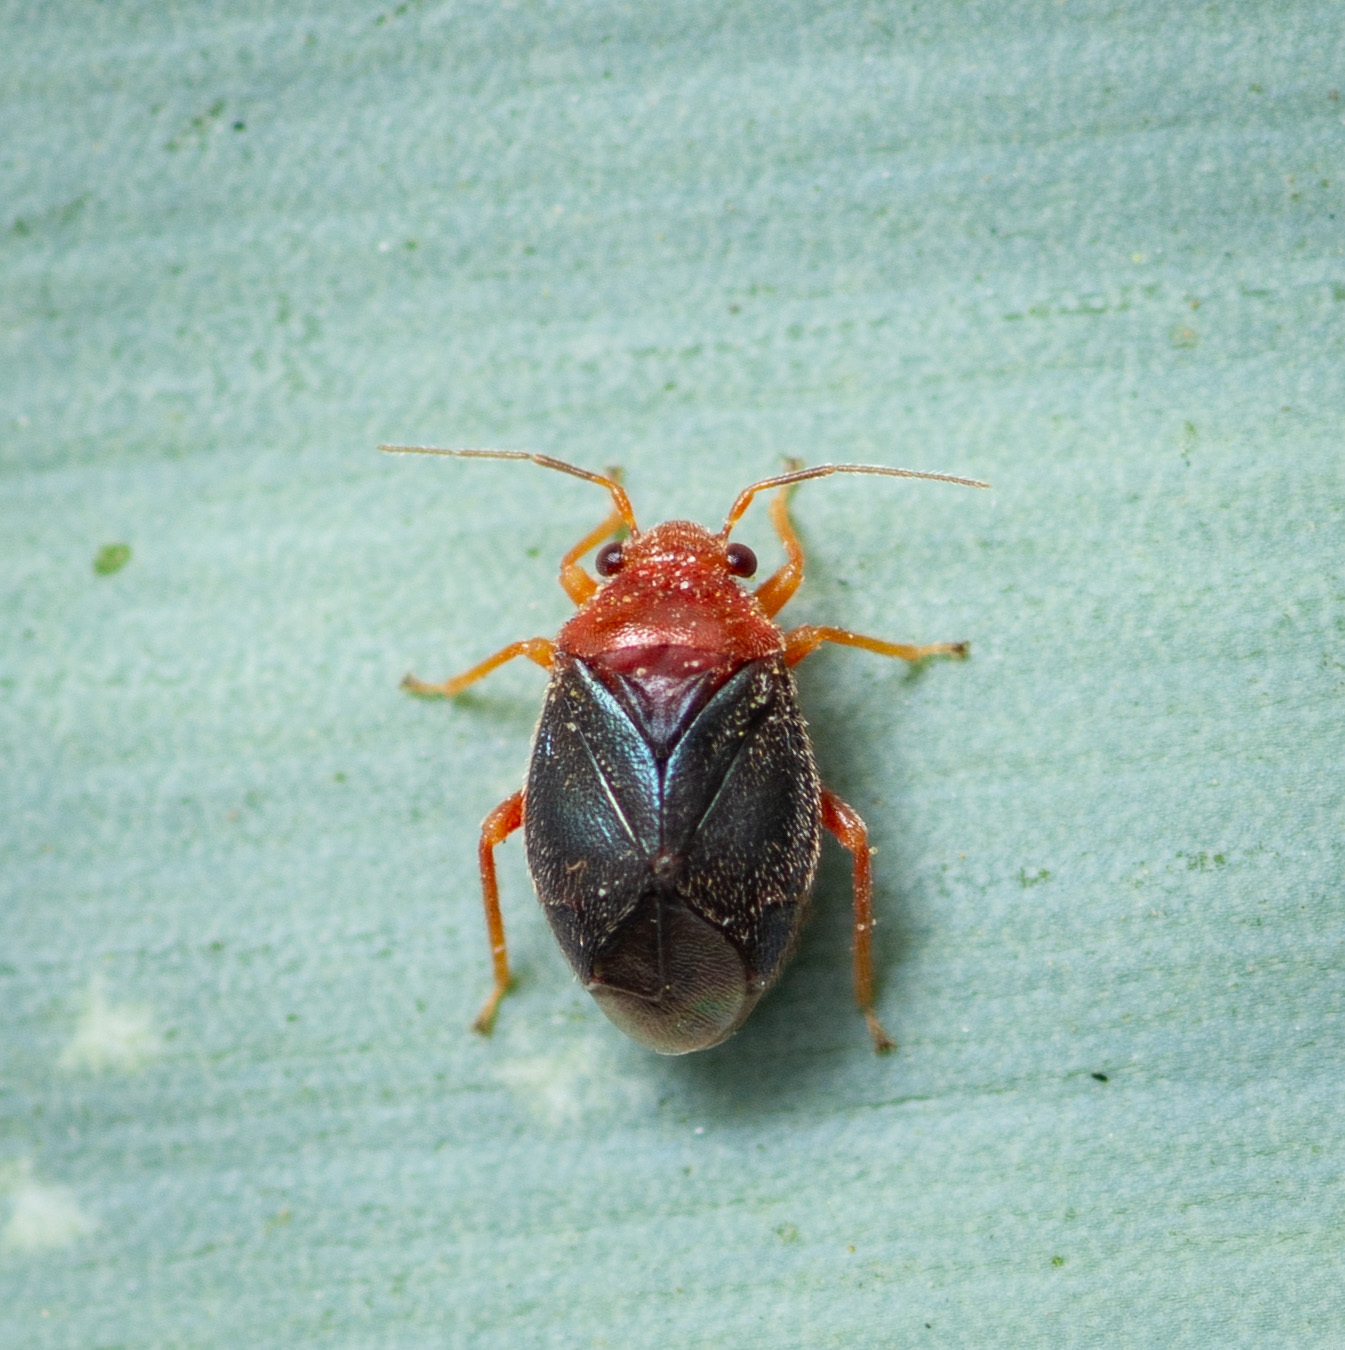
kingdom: Animalia
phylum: Arthropoda
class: Insecta
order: Hemiptera
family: Miridae
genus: Halticotoma
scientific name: Halticotoma valida
